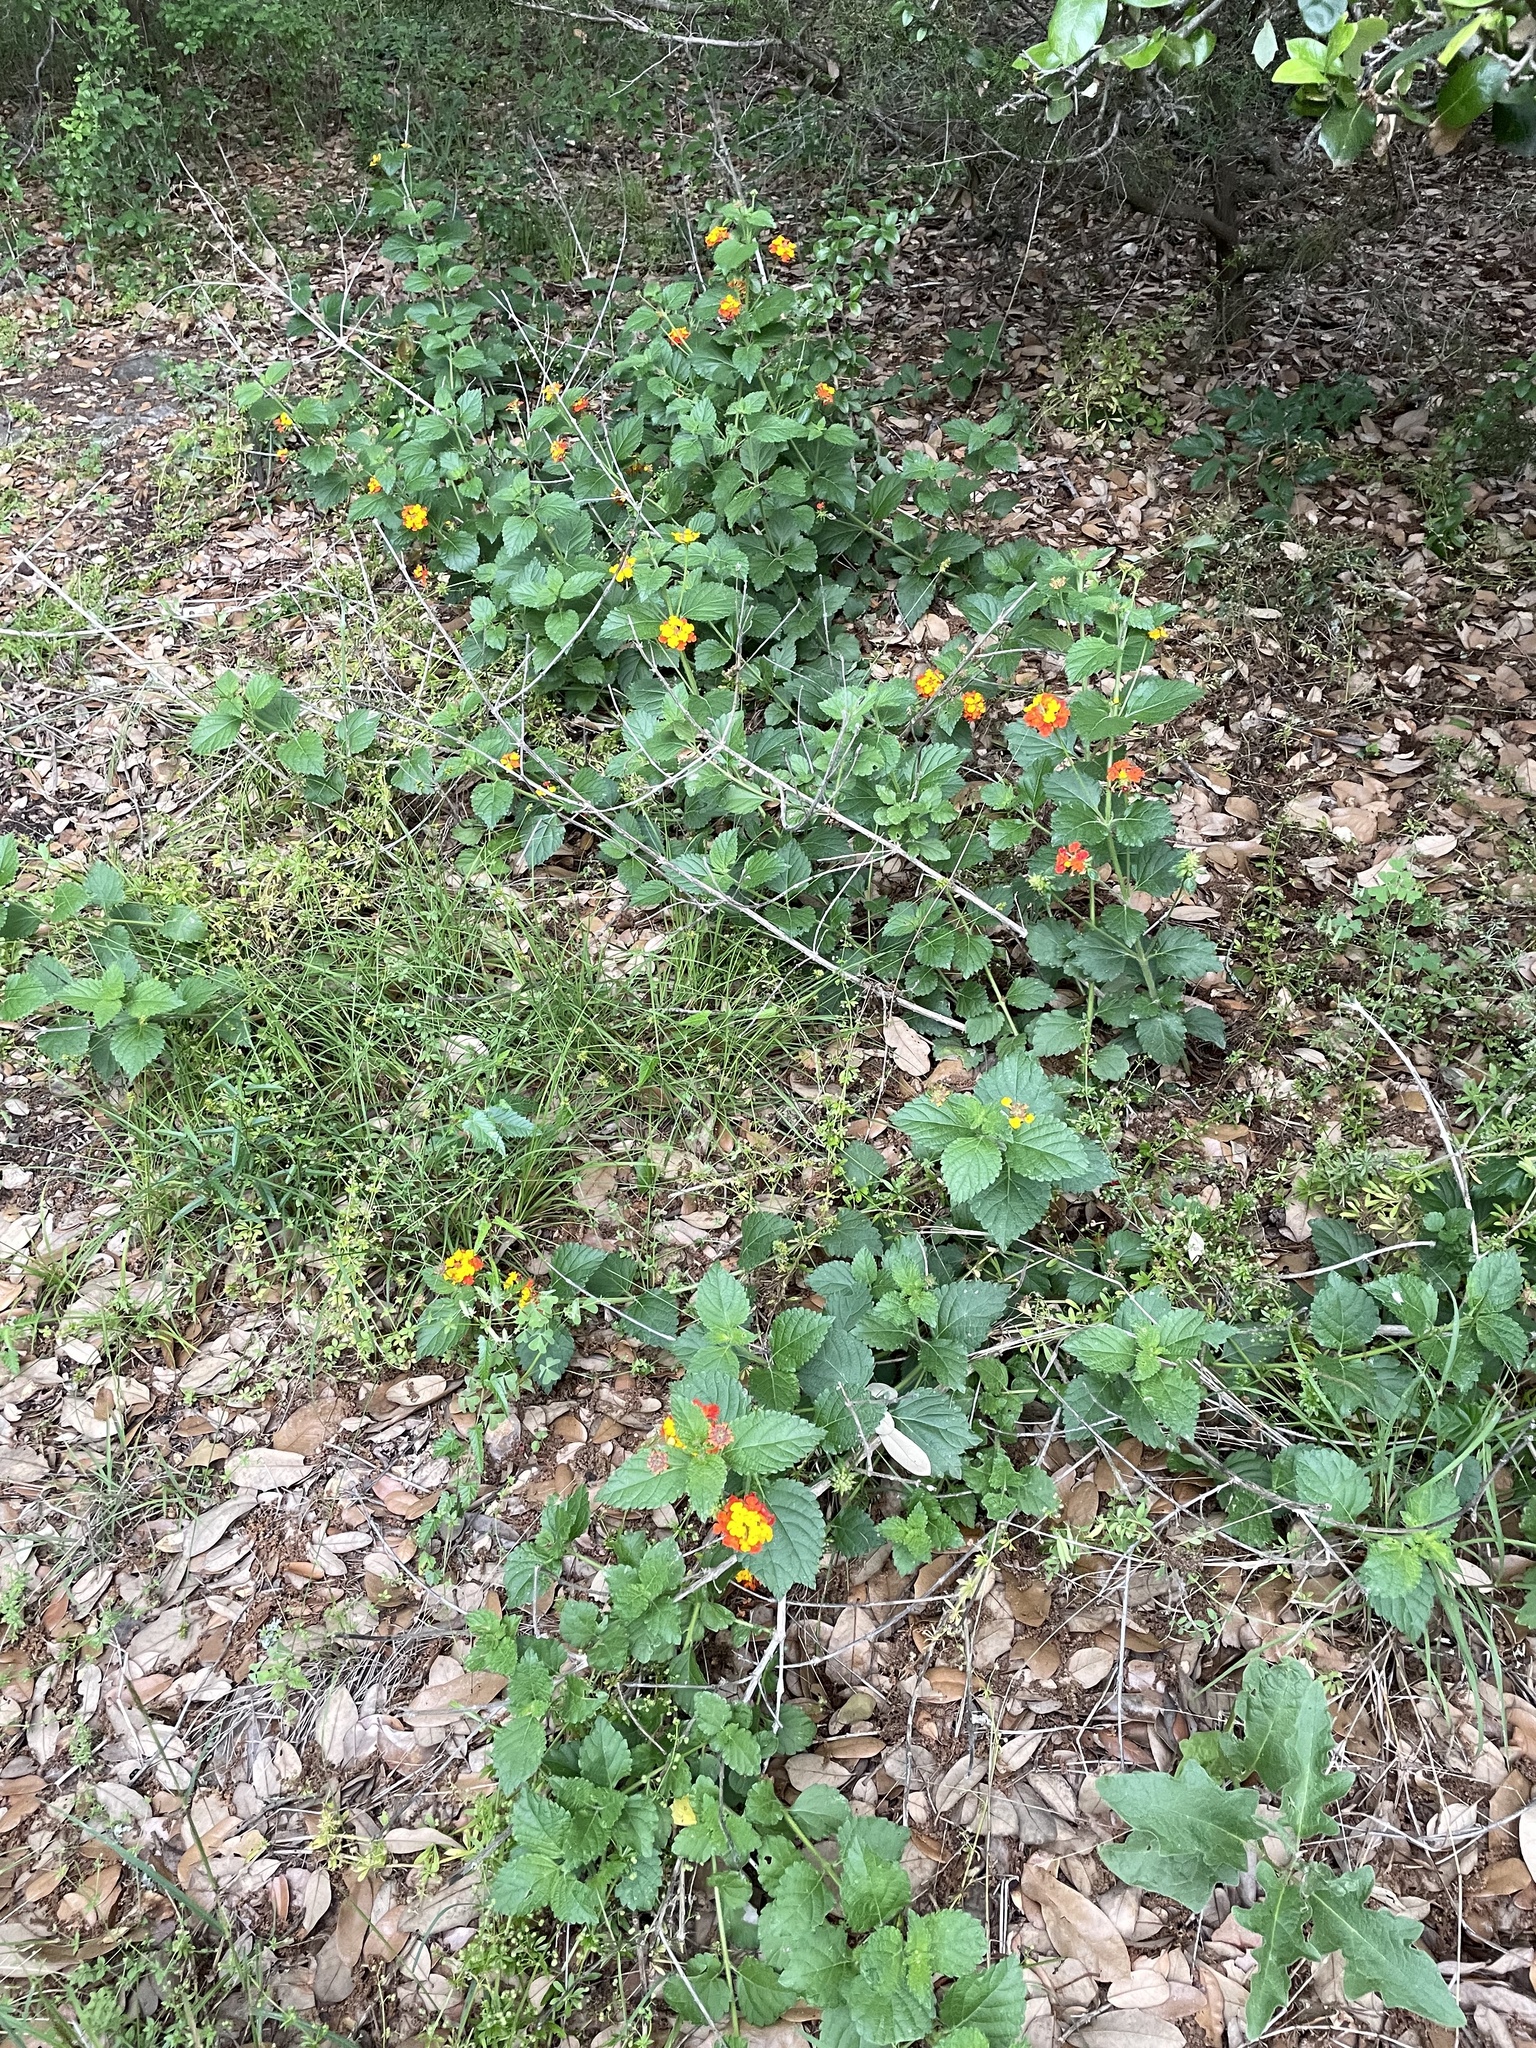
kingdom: Plantae
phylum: Tracheophyta
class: Magnoliopsida
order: Lamiales
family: Verbenaceae
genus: Lantana
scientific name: Lantana urticoides
